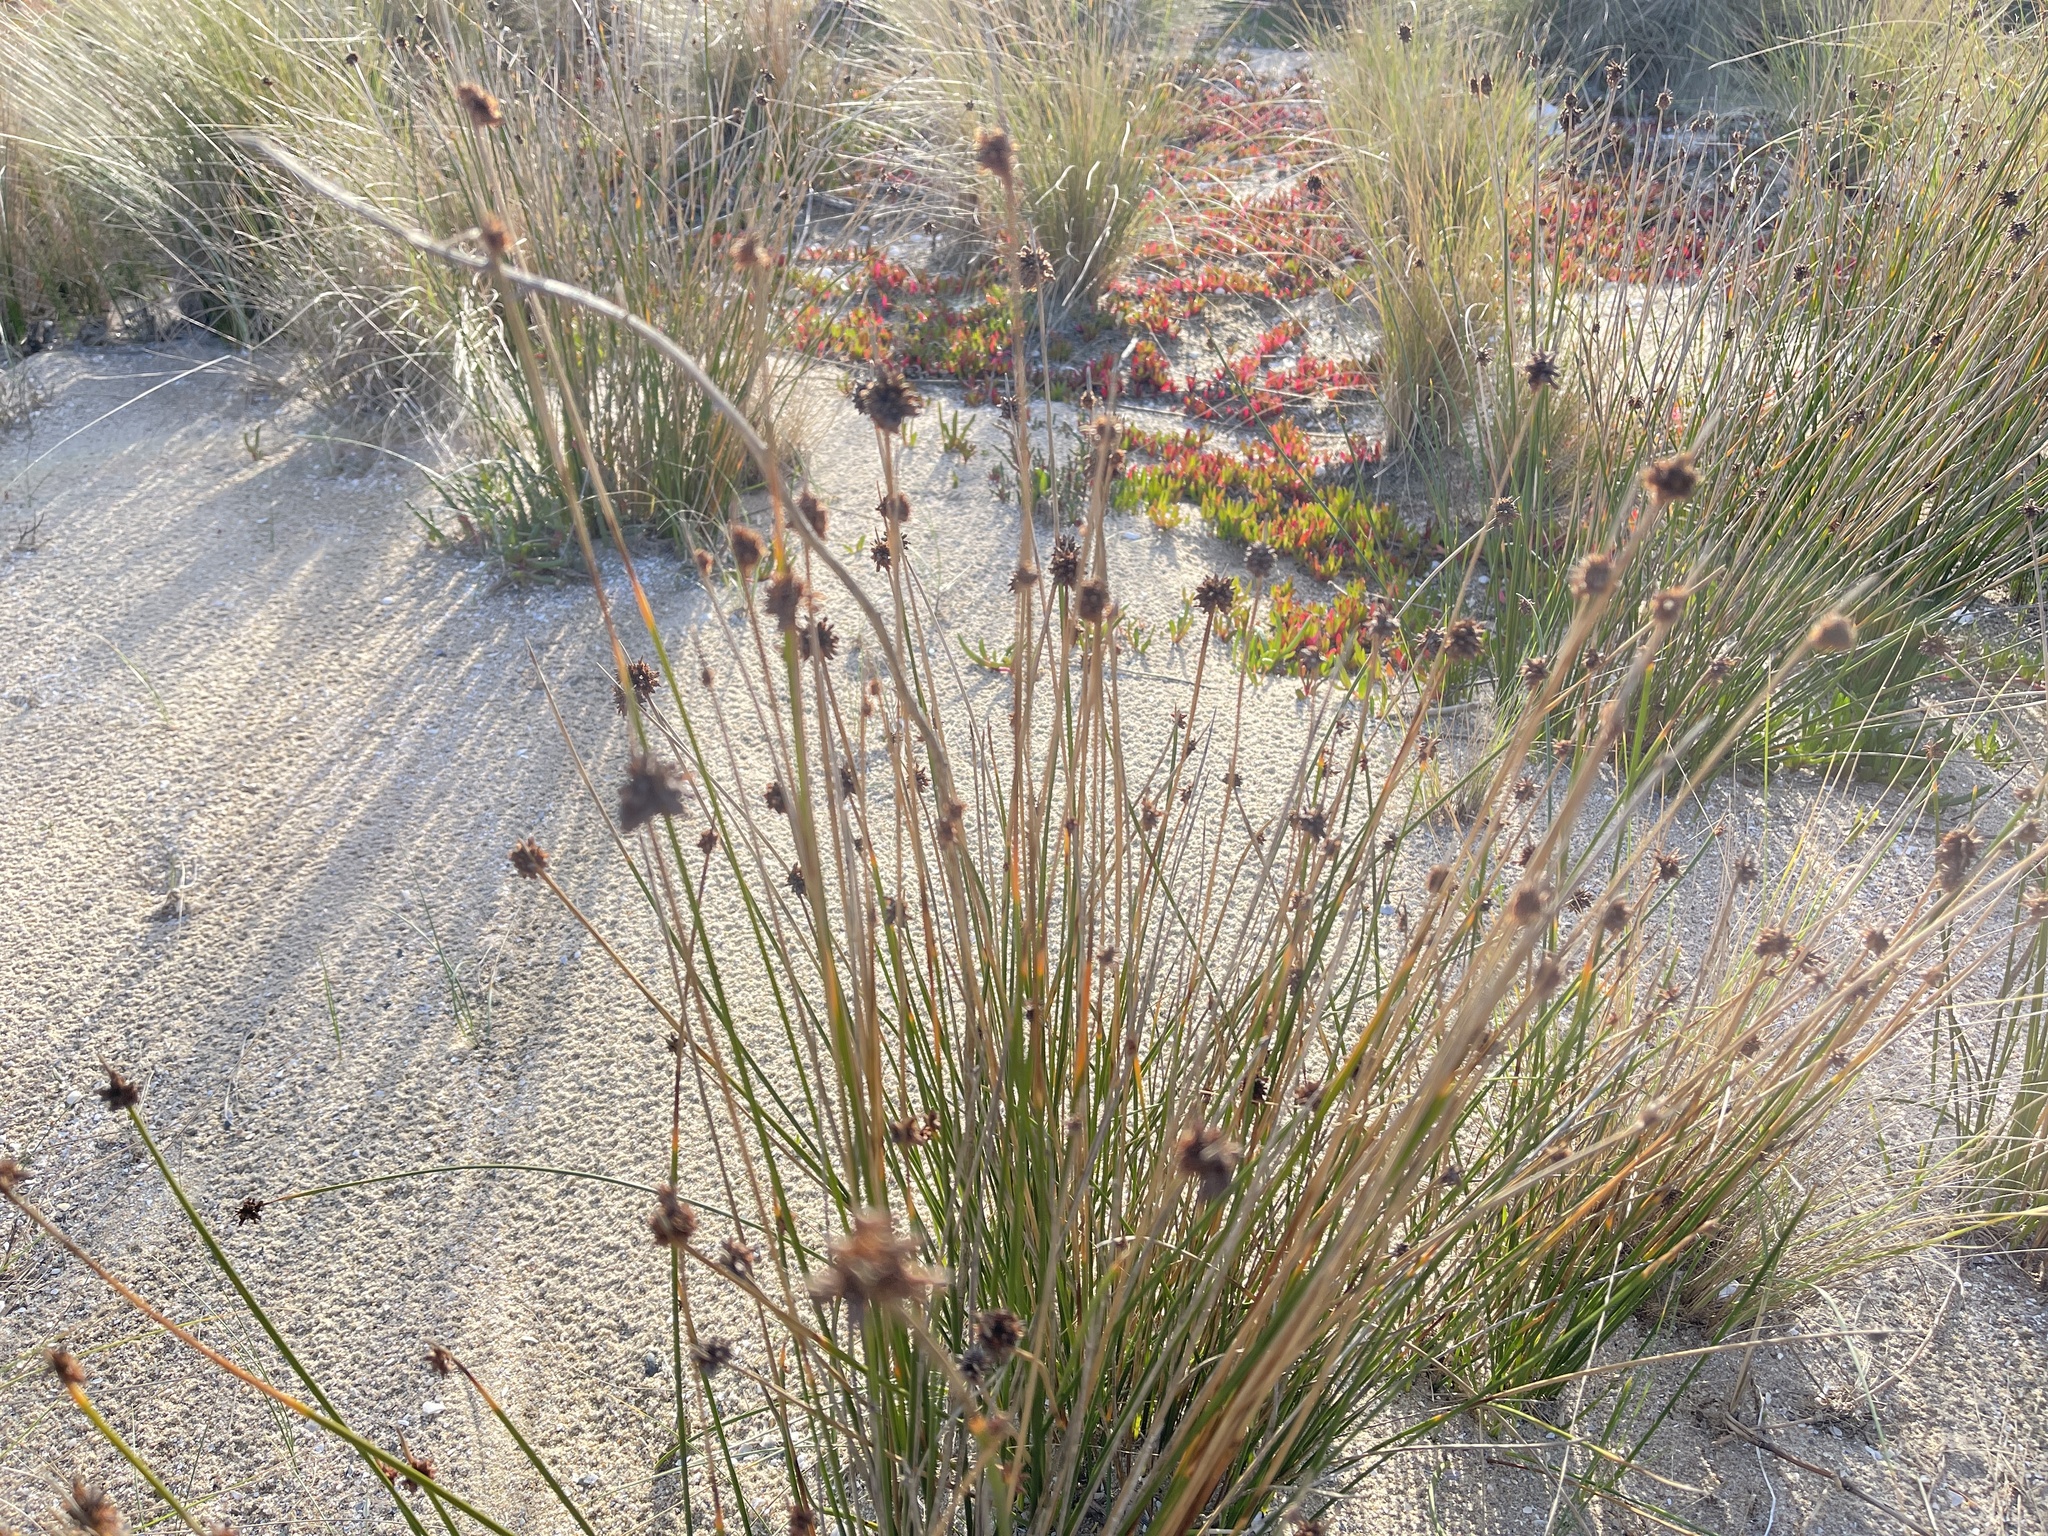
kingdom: Plantae
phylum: Tracheophyta
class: Liliopsida
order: Poales
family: Cyperaceae
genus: Ficinia
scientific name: Ficinia nodosa
